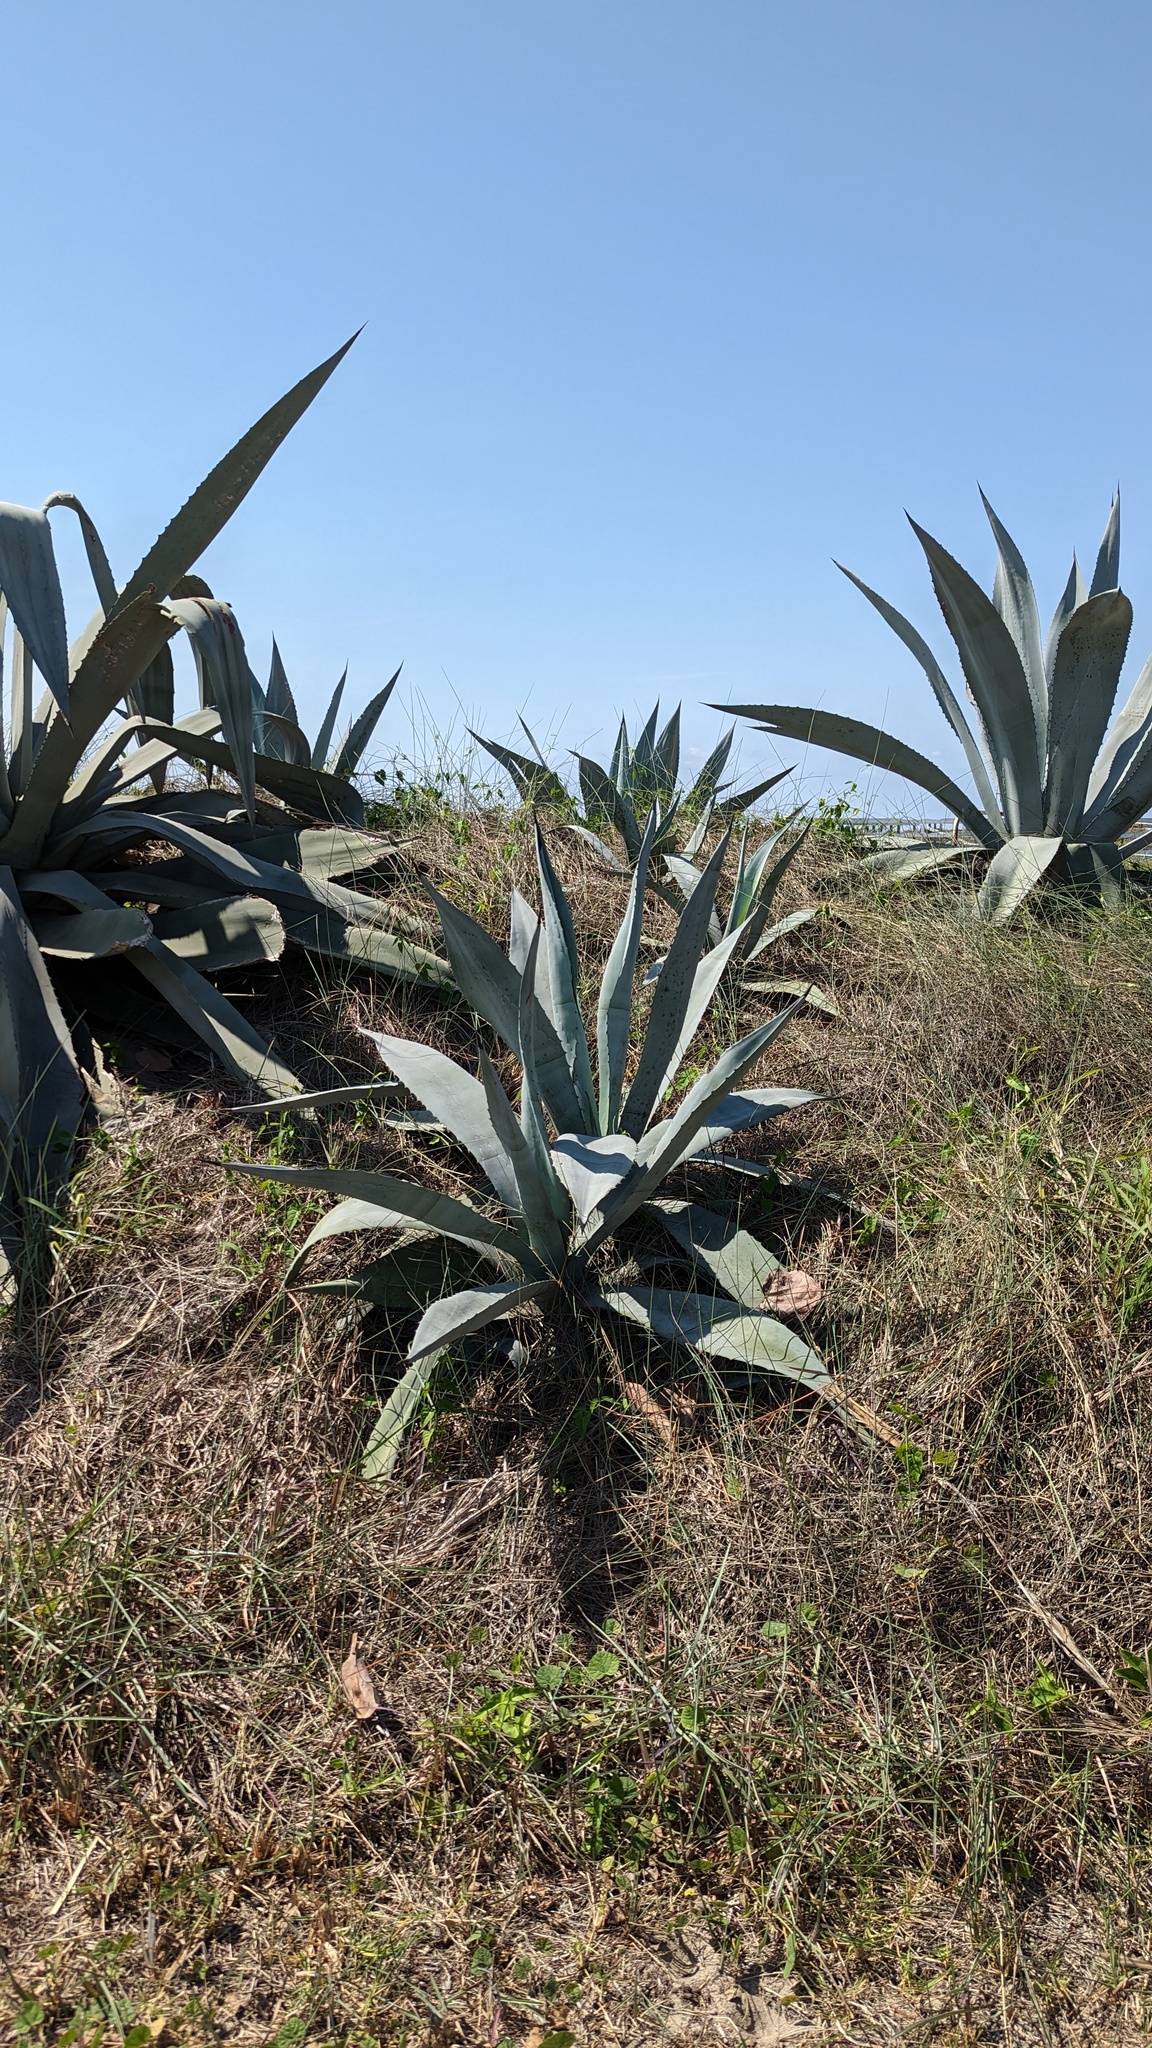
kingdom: Plantae
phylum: Tracheophyta
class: Liliopsida
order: Asparagales
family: Asparagaceae
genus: Agave
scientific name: Agave americana
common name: Centuryplant
